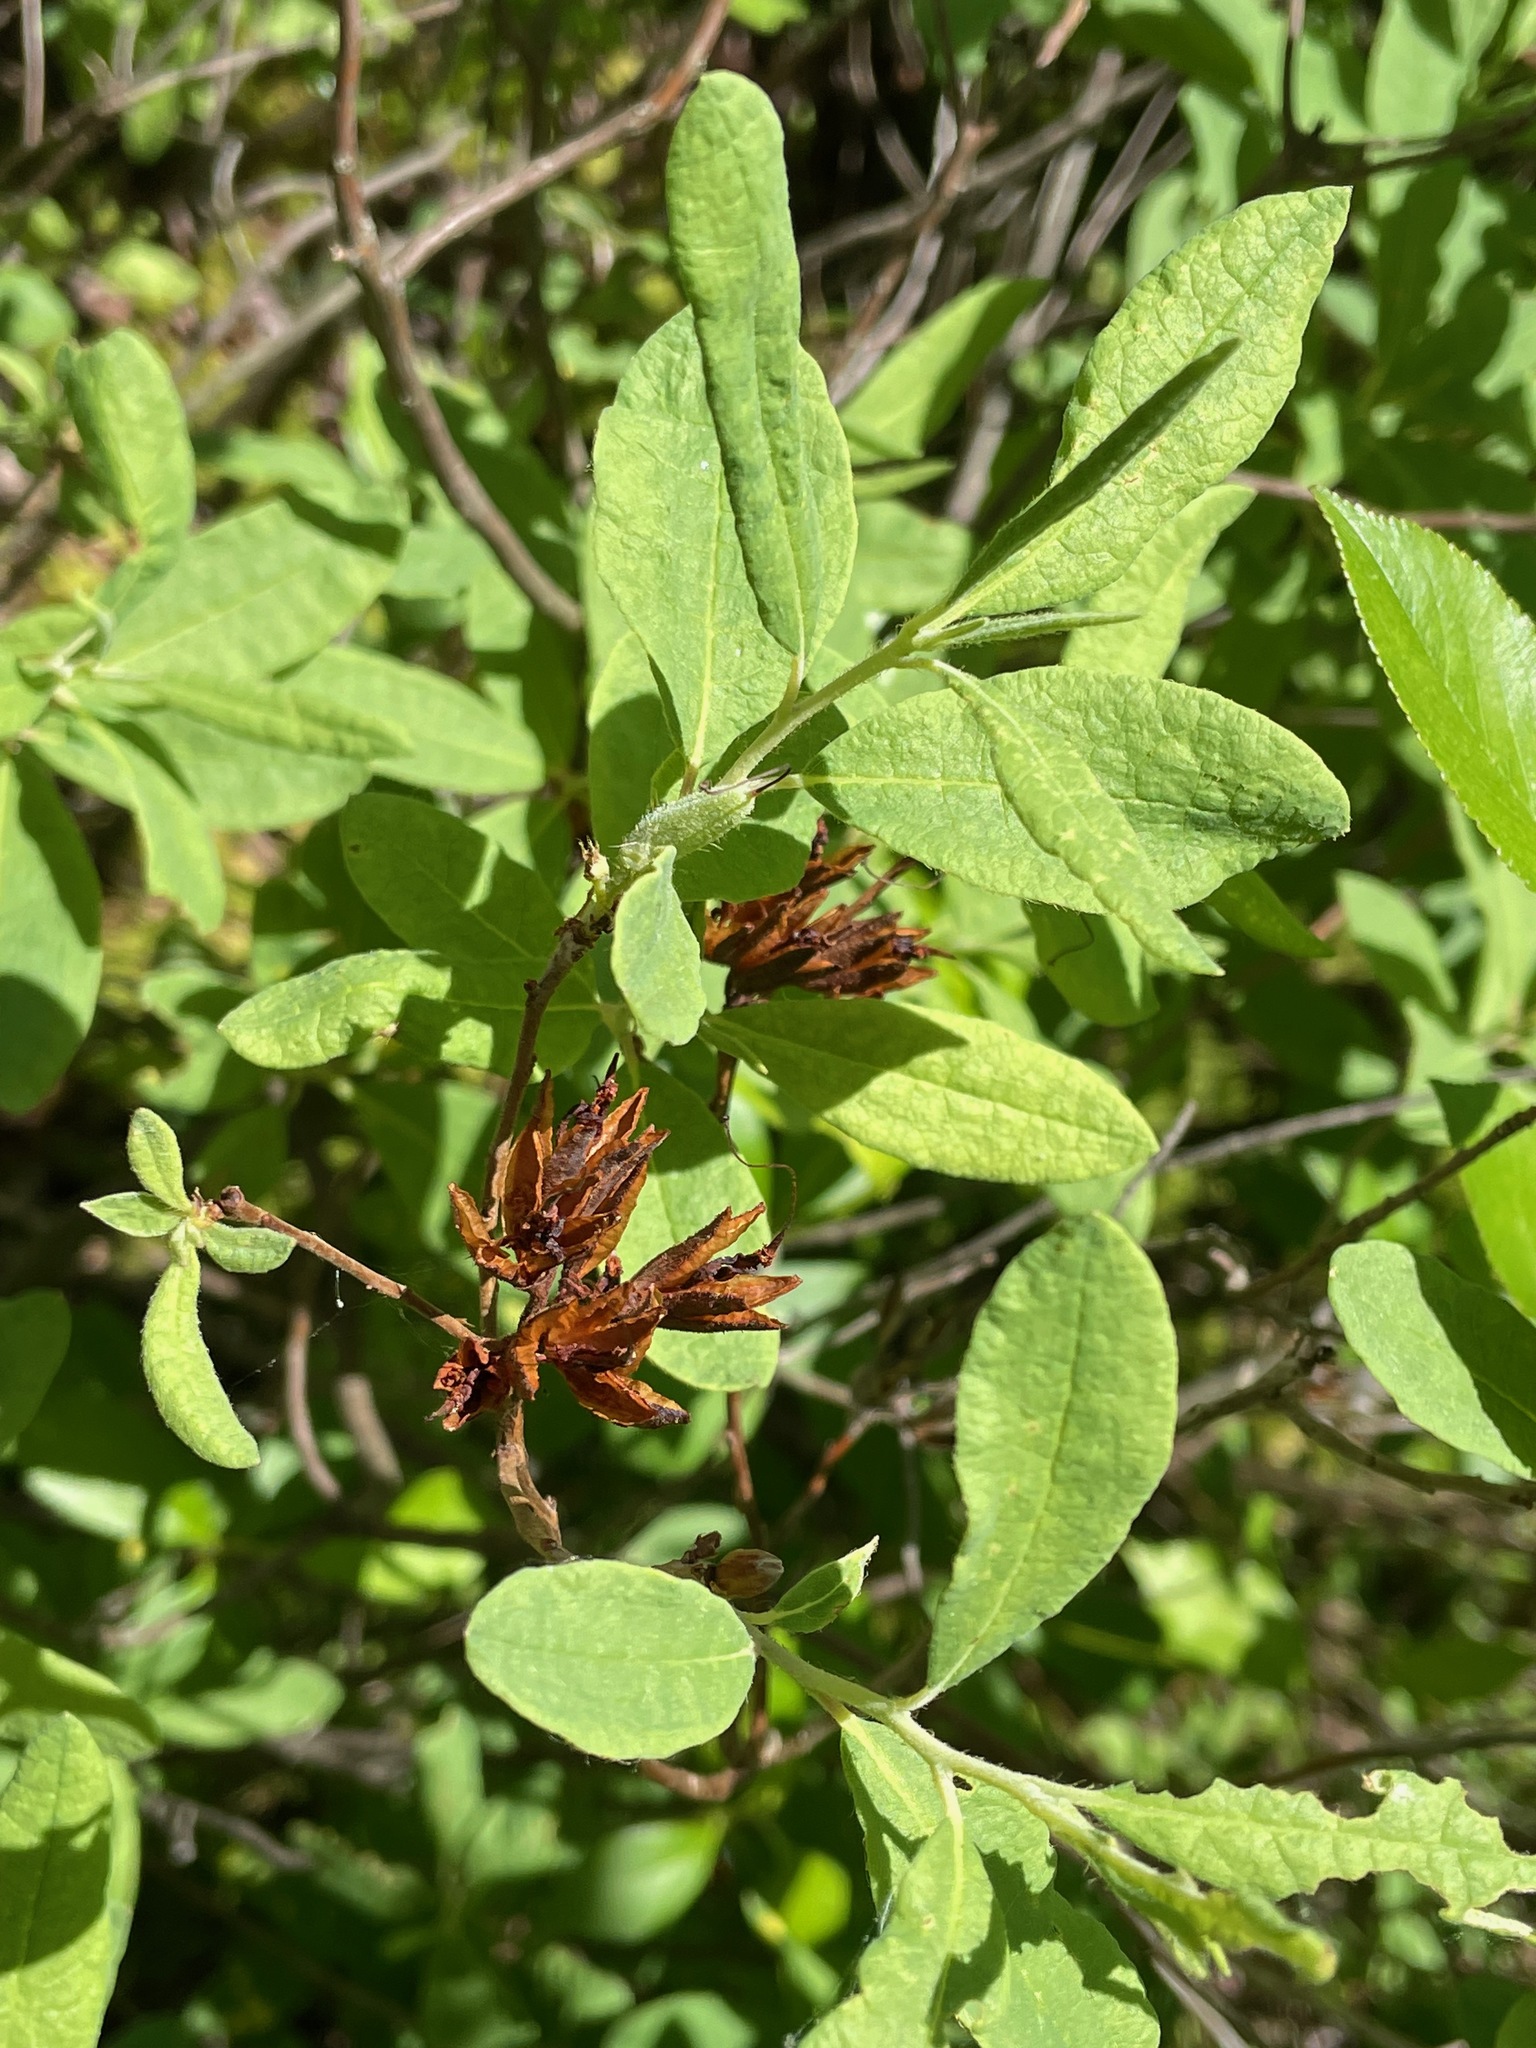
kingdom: Plantae
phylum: Tracheophyta
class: Magnoliopsida
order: Ericales
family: Ericaceae
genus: Rhododendron
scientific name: Rhododendron canadense
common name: Rhodora
